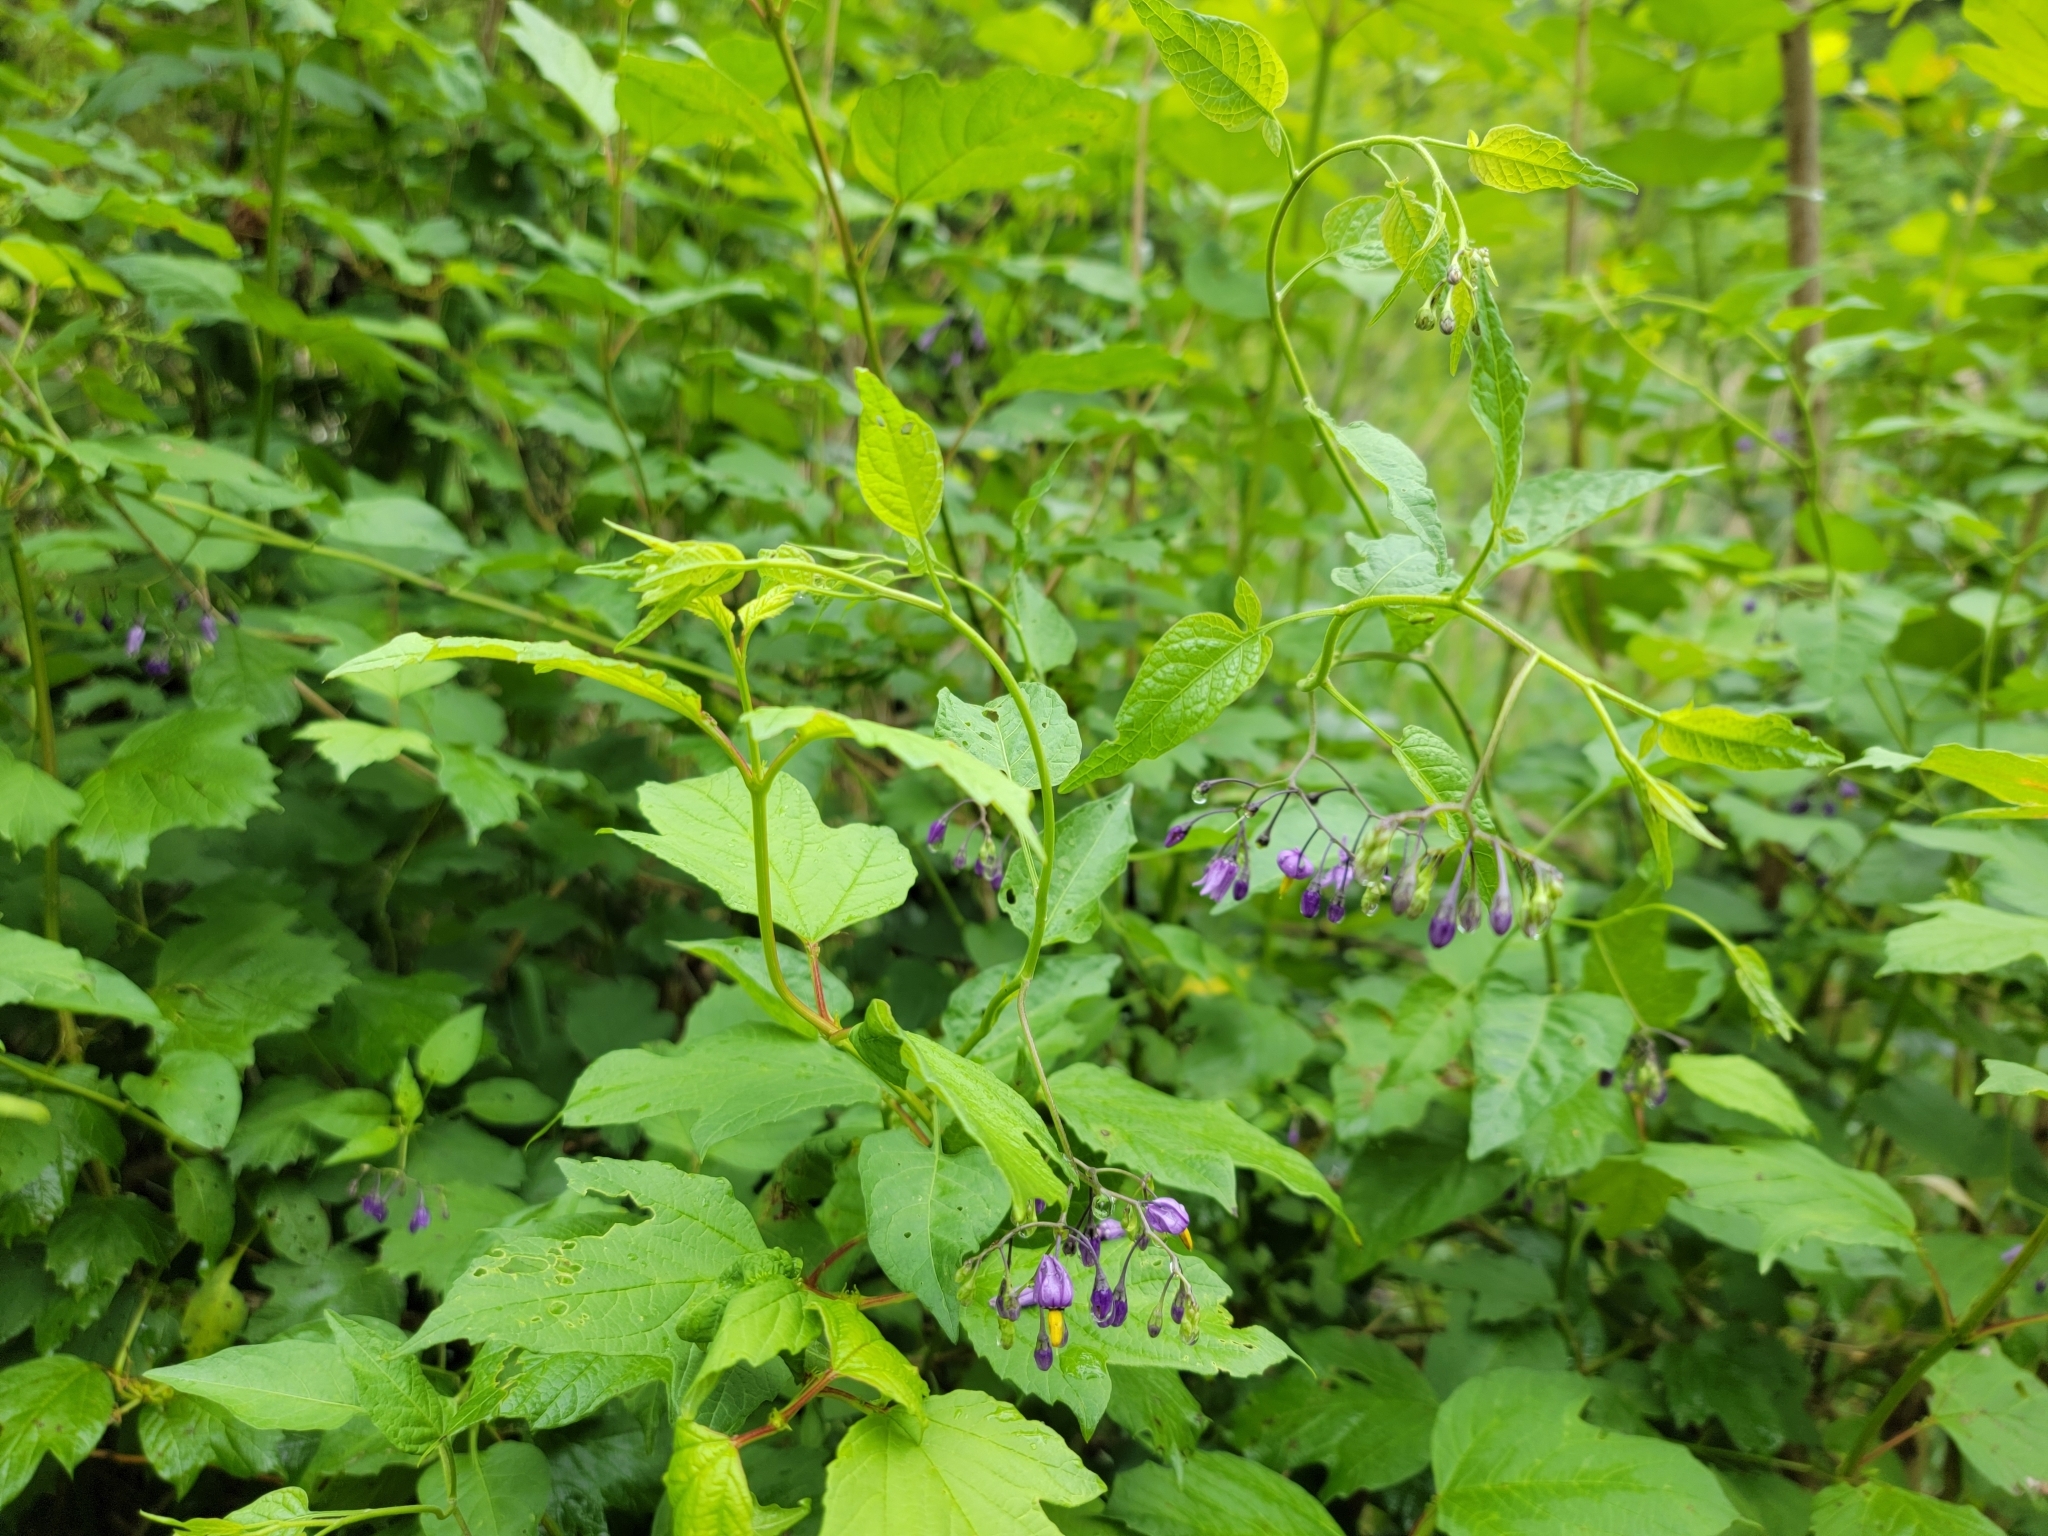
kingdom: Plantae
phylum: Tracheophyta
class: Magnoliopsida
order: Solanales
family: Solanaceae
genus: Solanum
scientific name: Solanum dulcamara
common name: Climbing nightshade
